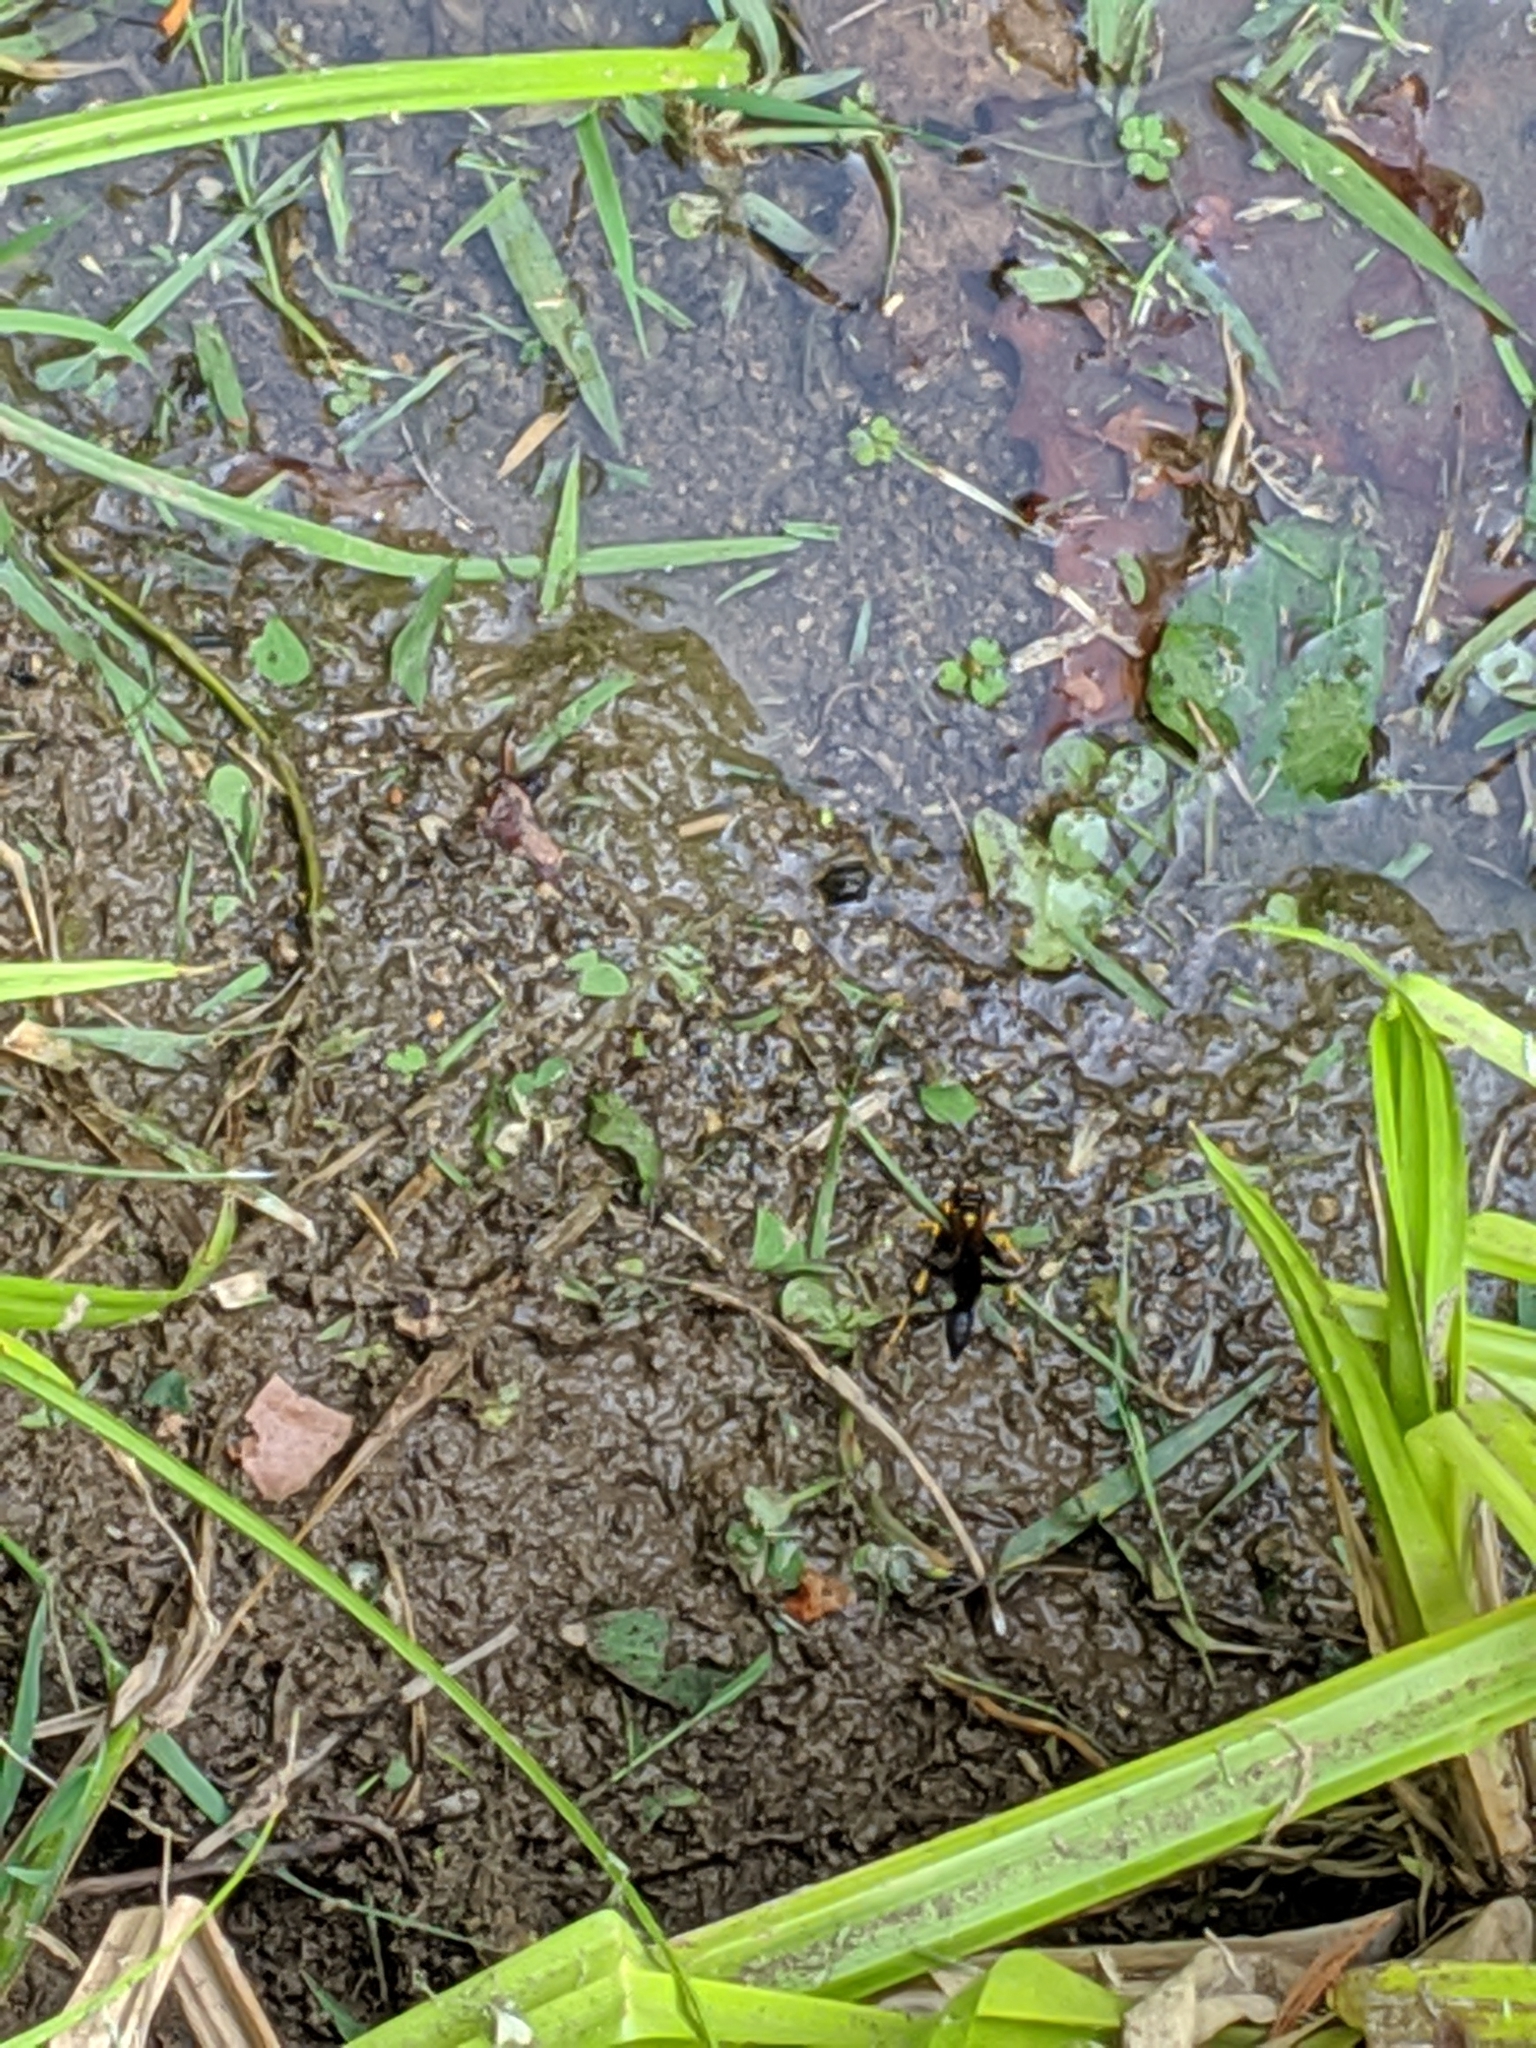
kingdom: Animalia
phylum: Arthropoda
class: Insecta
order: Hymenoptera
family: Sphecidae
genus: Sceliphron
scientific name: Sceliphron caementarium
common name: Mud dauber
